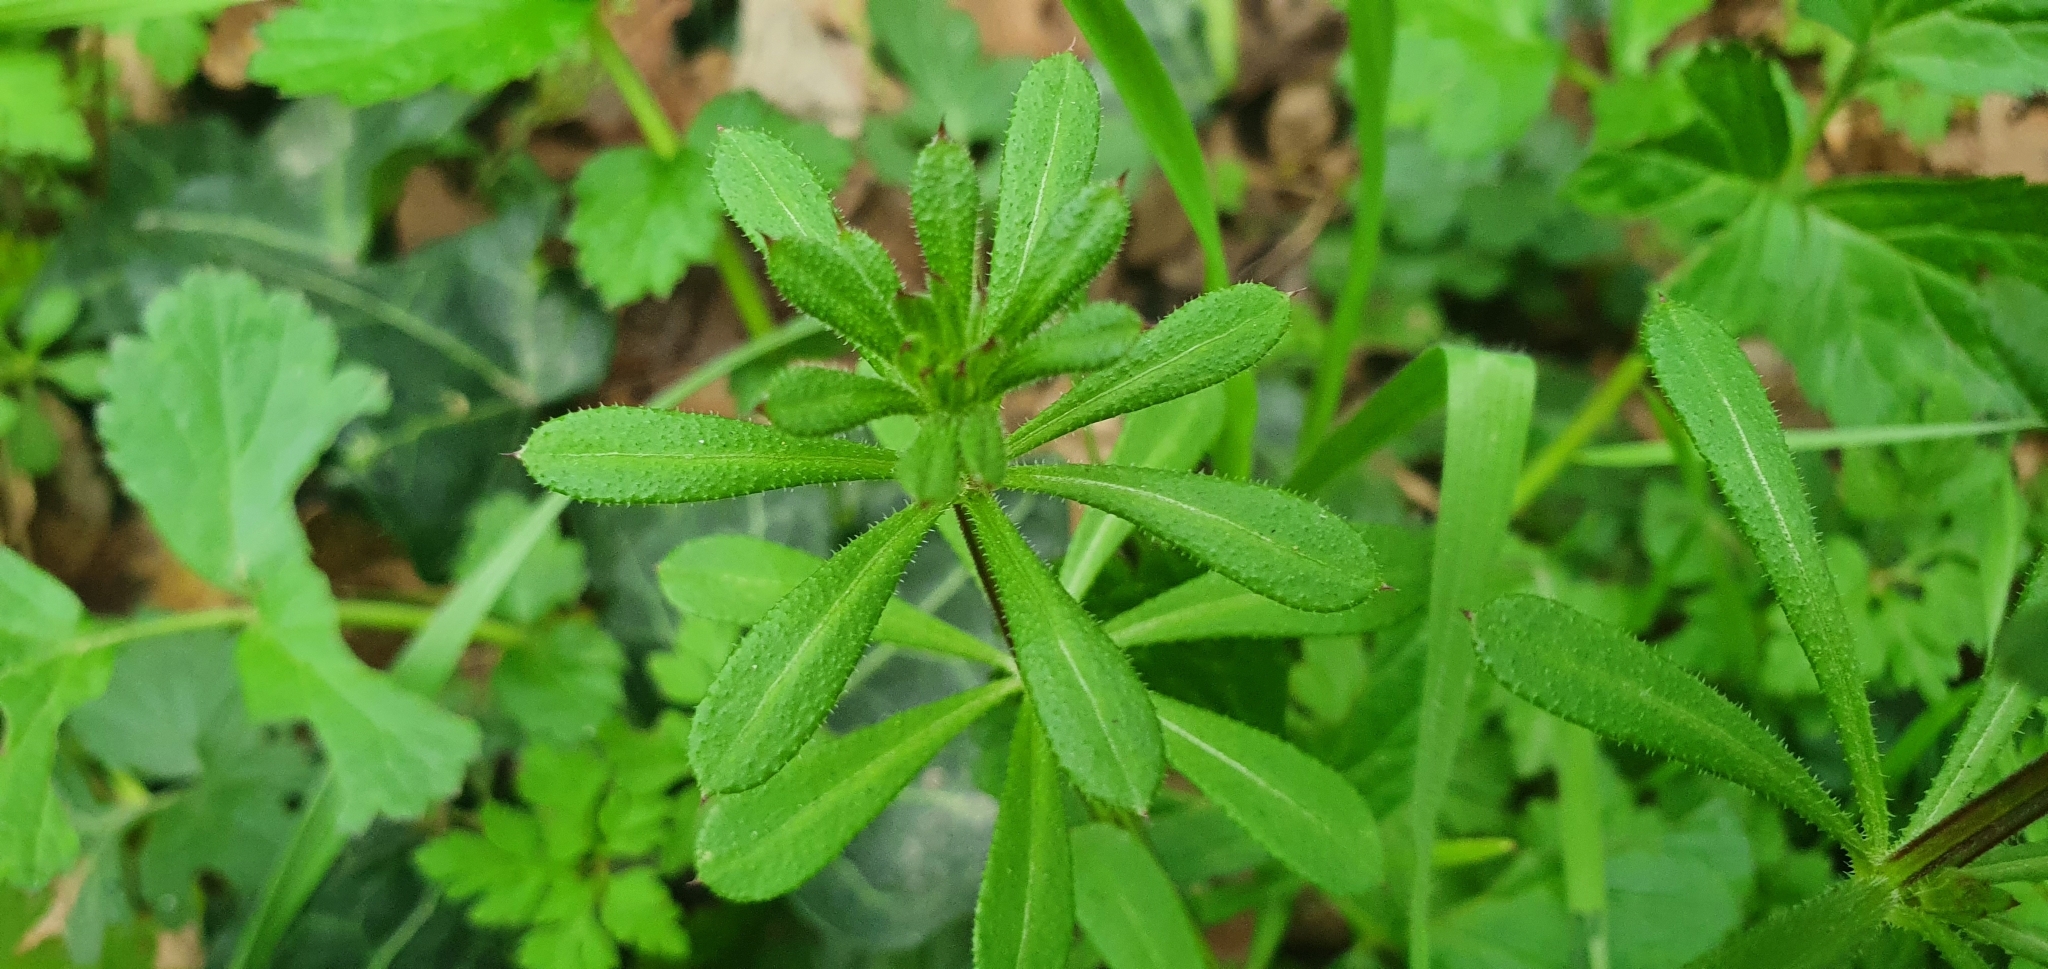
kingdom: Plantae
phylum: Tracheophyta
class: Magnoliopsida
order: Gentianales
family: Rubiaceae
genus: Galium
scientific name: Galium aparine
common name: Cleavers
